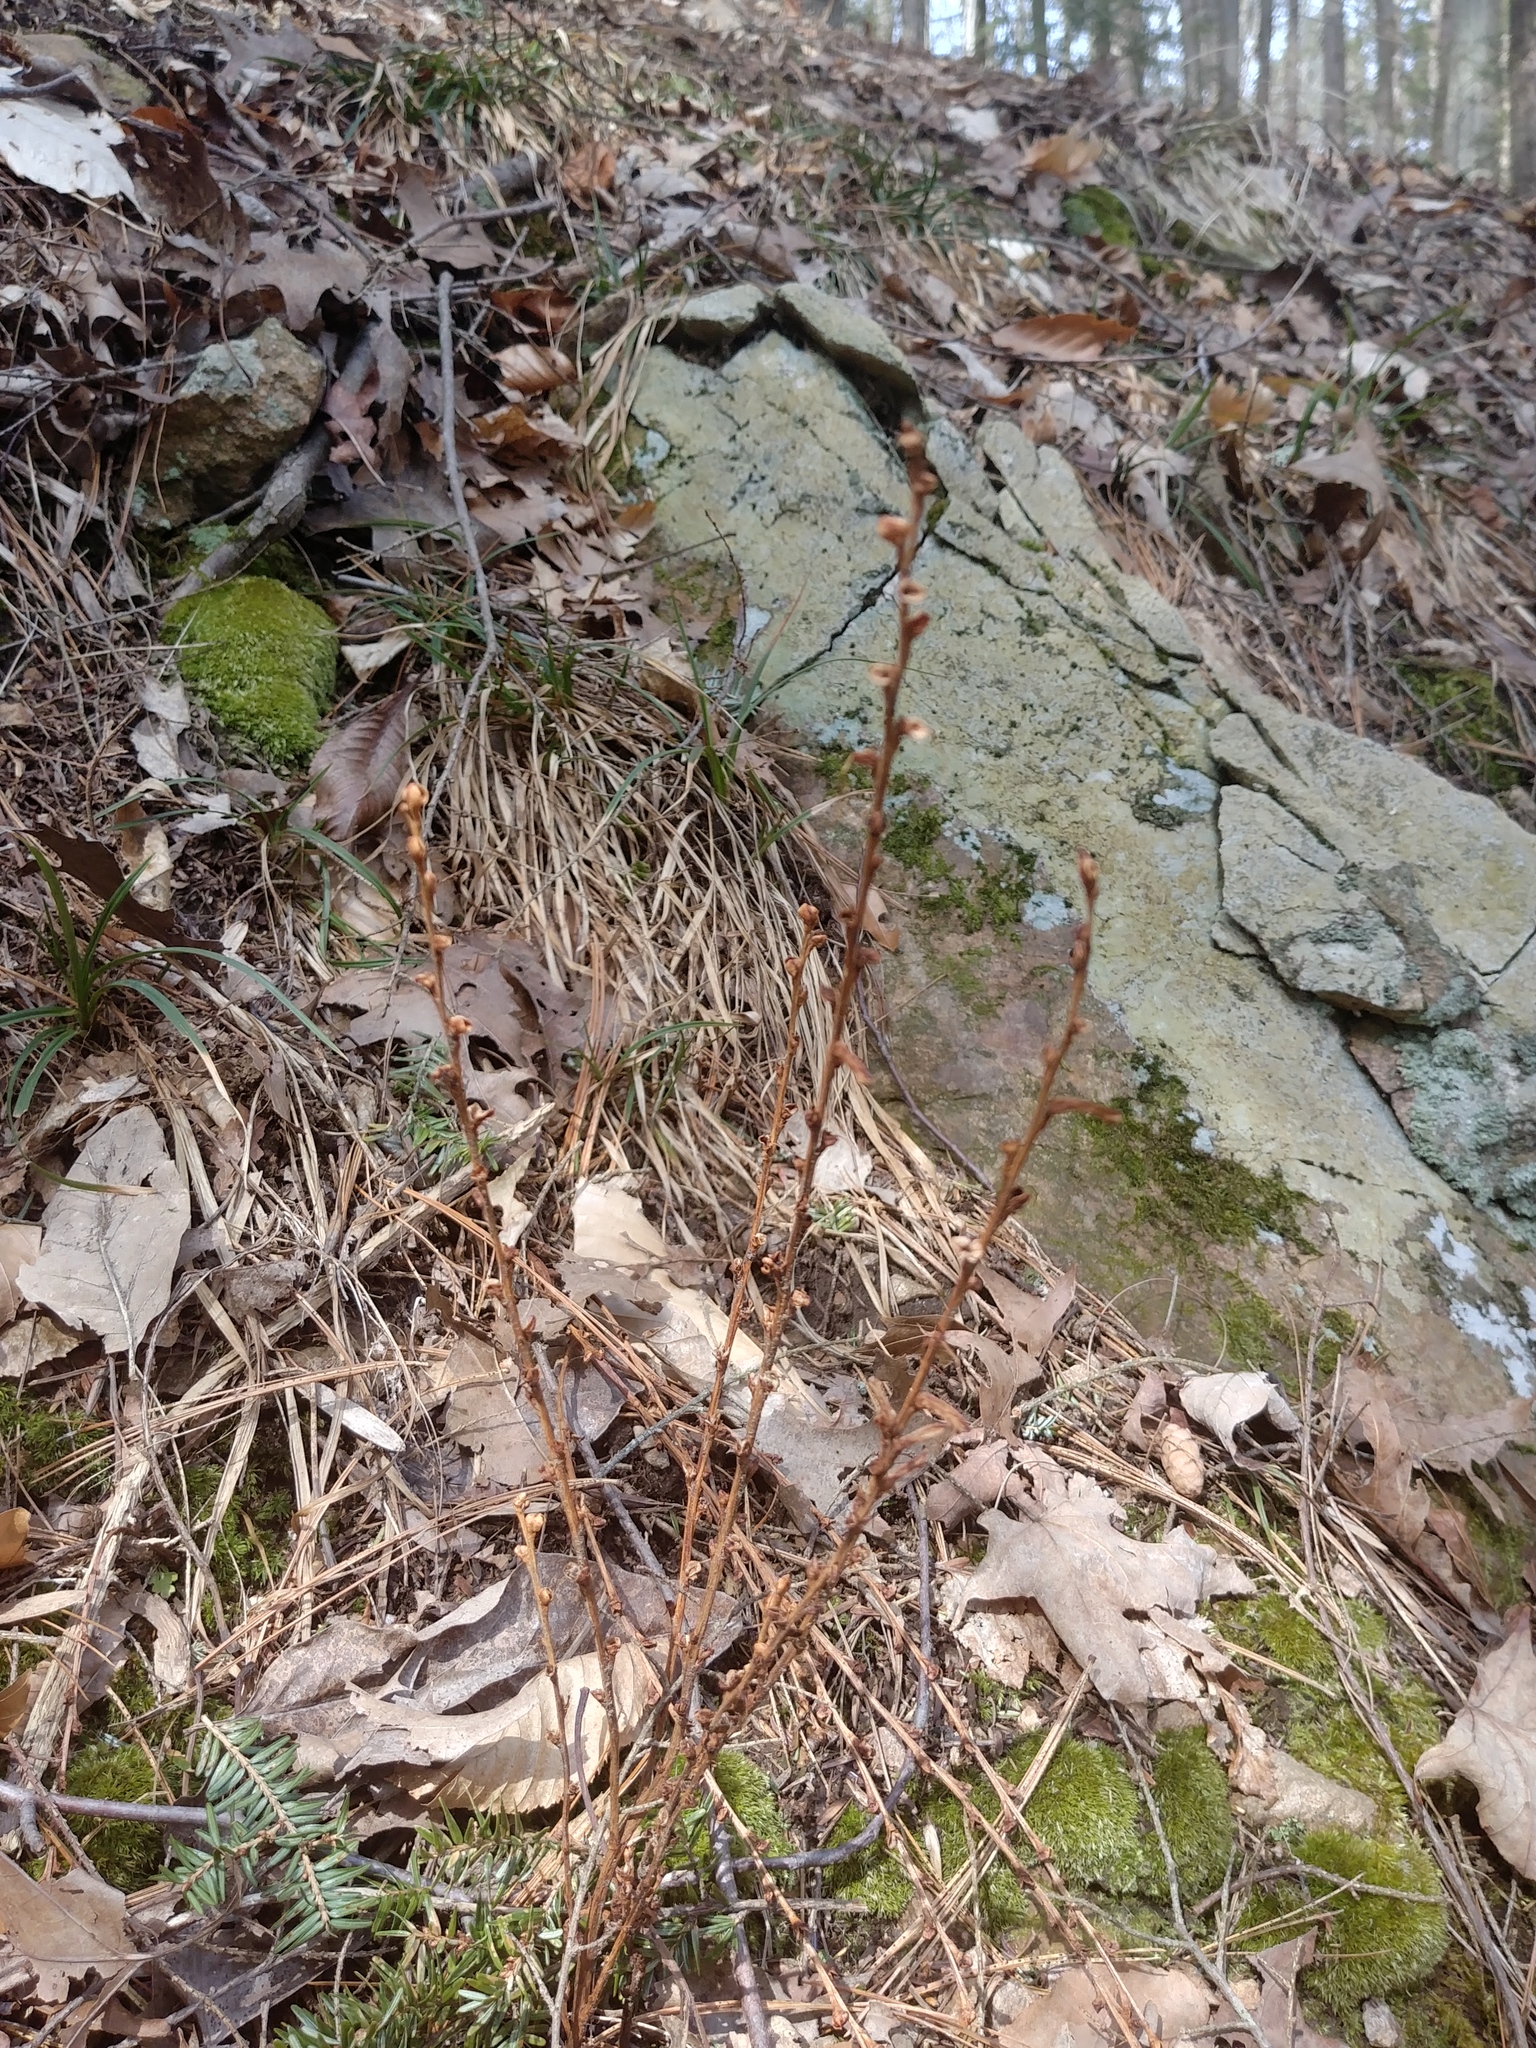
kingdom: Plantae
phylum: Tracheophyta
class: Magnoliopsida
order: Lamiales
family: Orobanchaceae
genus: Epifagus
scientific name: Epifagus virginiana
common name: Beechdrops
